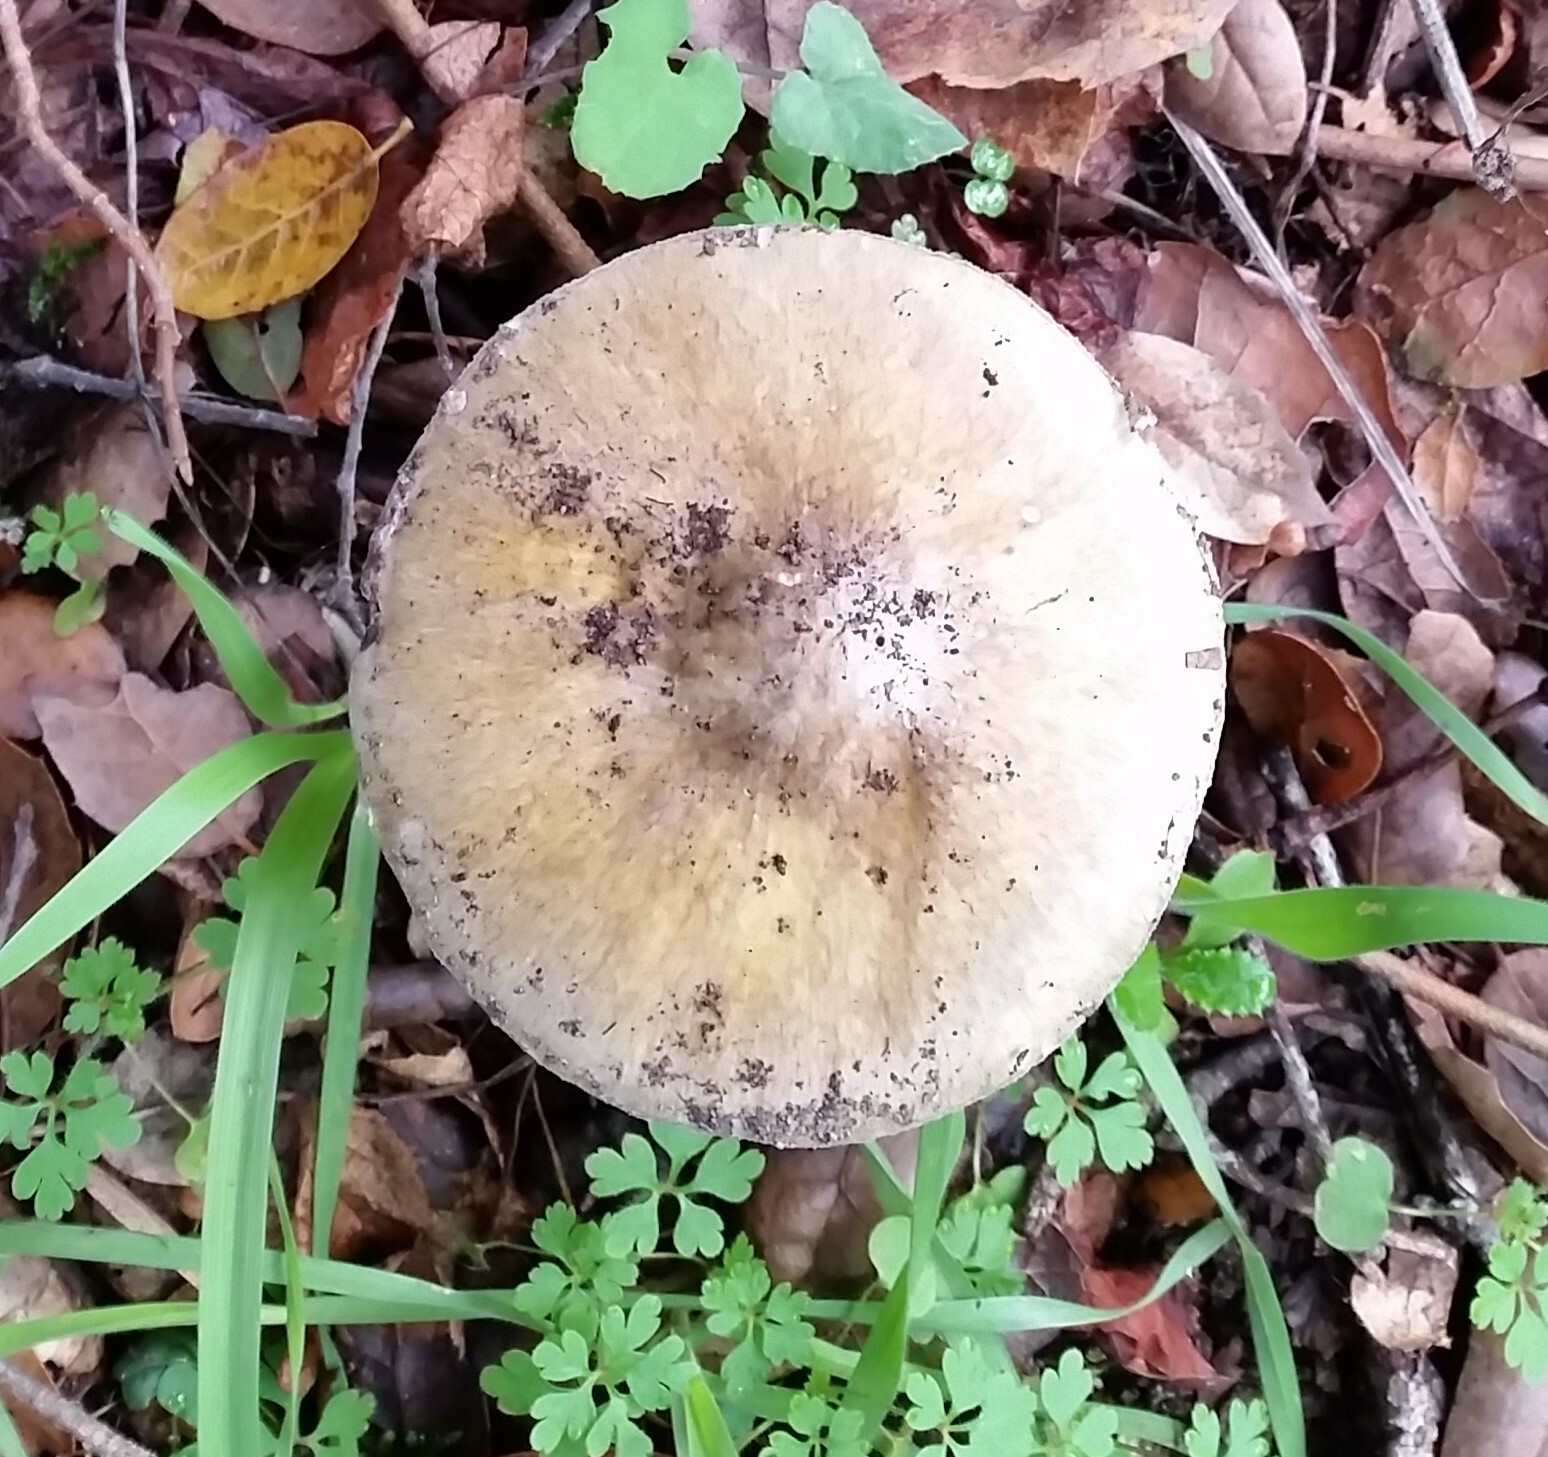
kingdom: Fungi
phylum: Basidiomycota
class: Agaricomycetes
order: Agaricales
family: Amanitaceae
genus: Amanita
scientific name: Amanita phalloides
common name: Death cap
